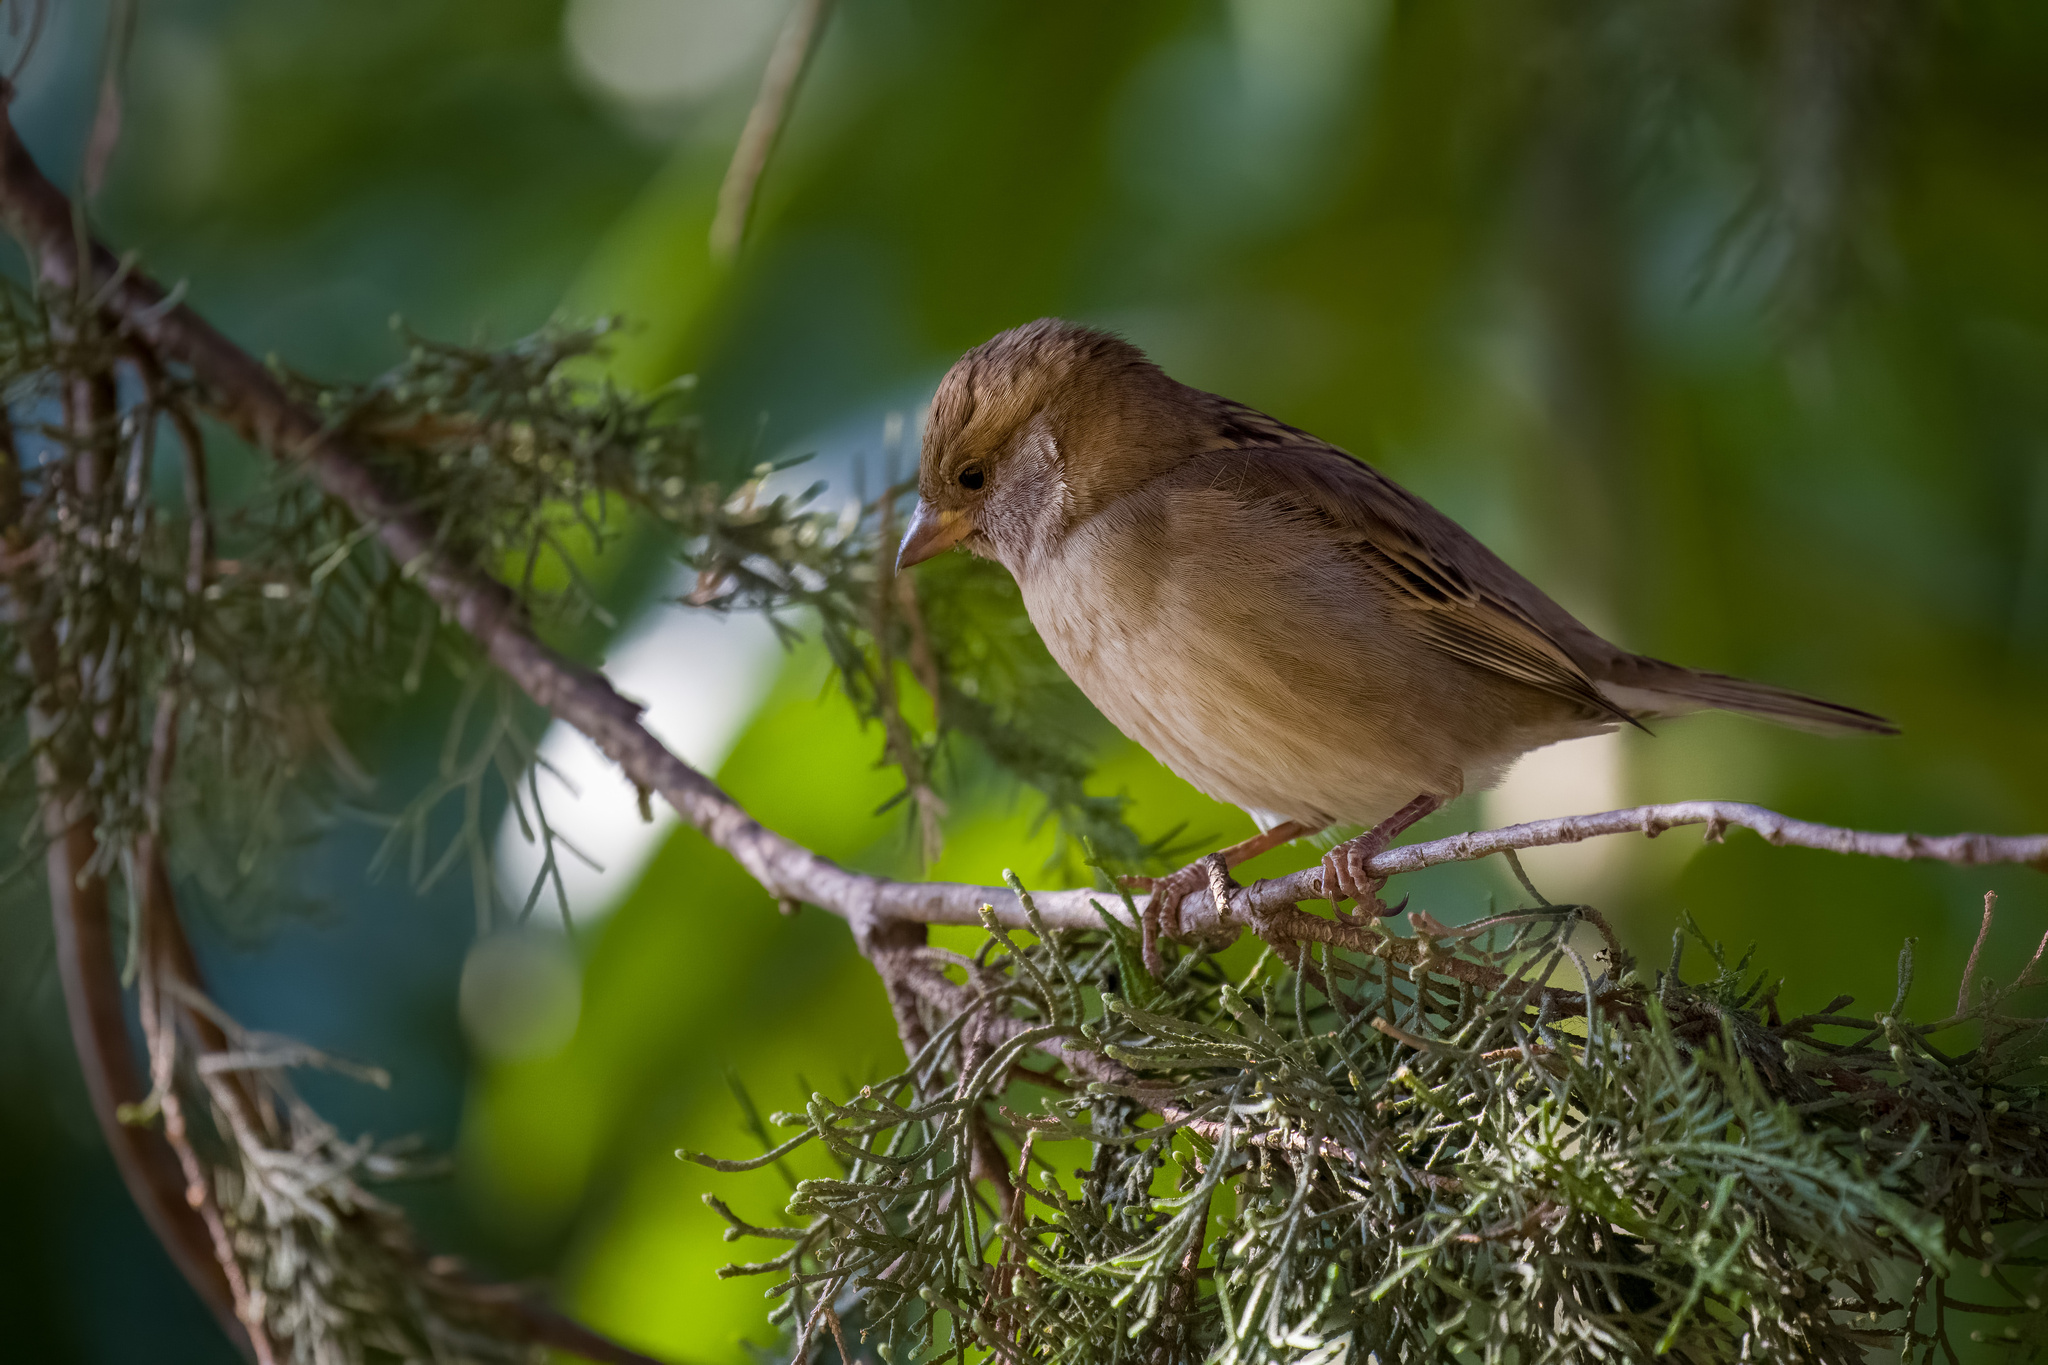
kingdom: Animalia
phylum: Chordata
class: Aves
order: Passeriformes
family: Passeridae
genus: Passer
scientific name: Passer domesticus
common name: House sparrow
